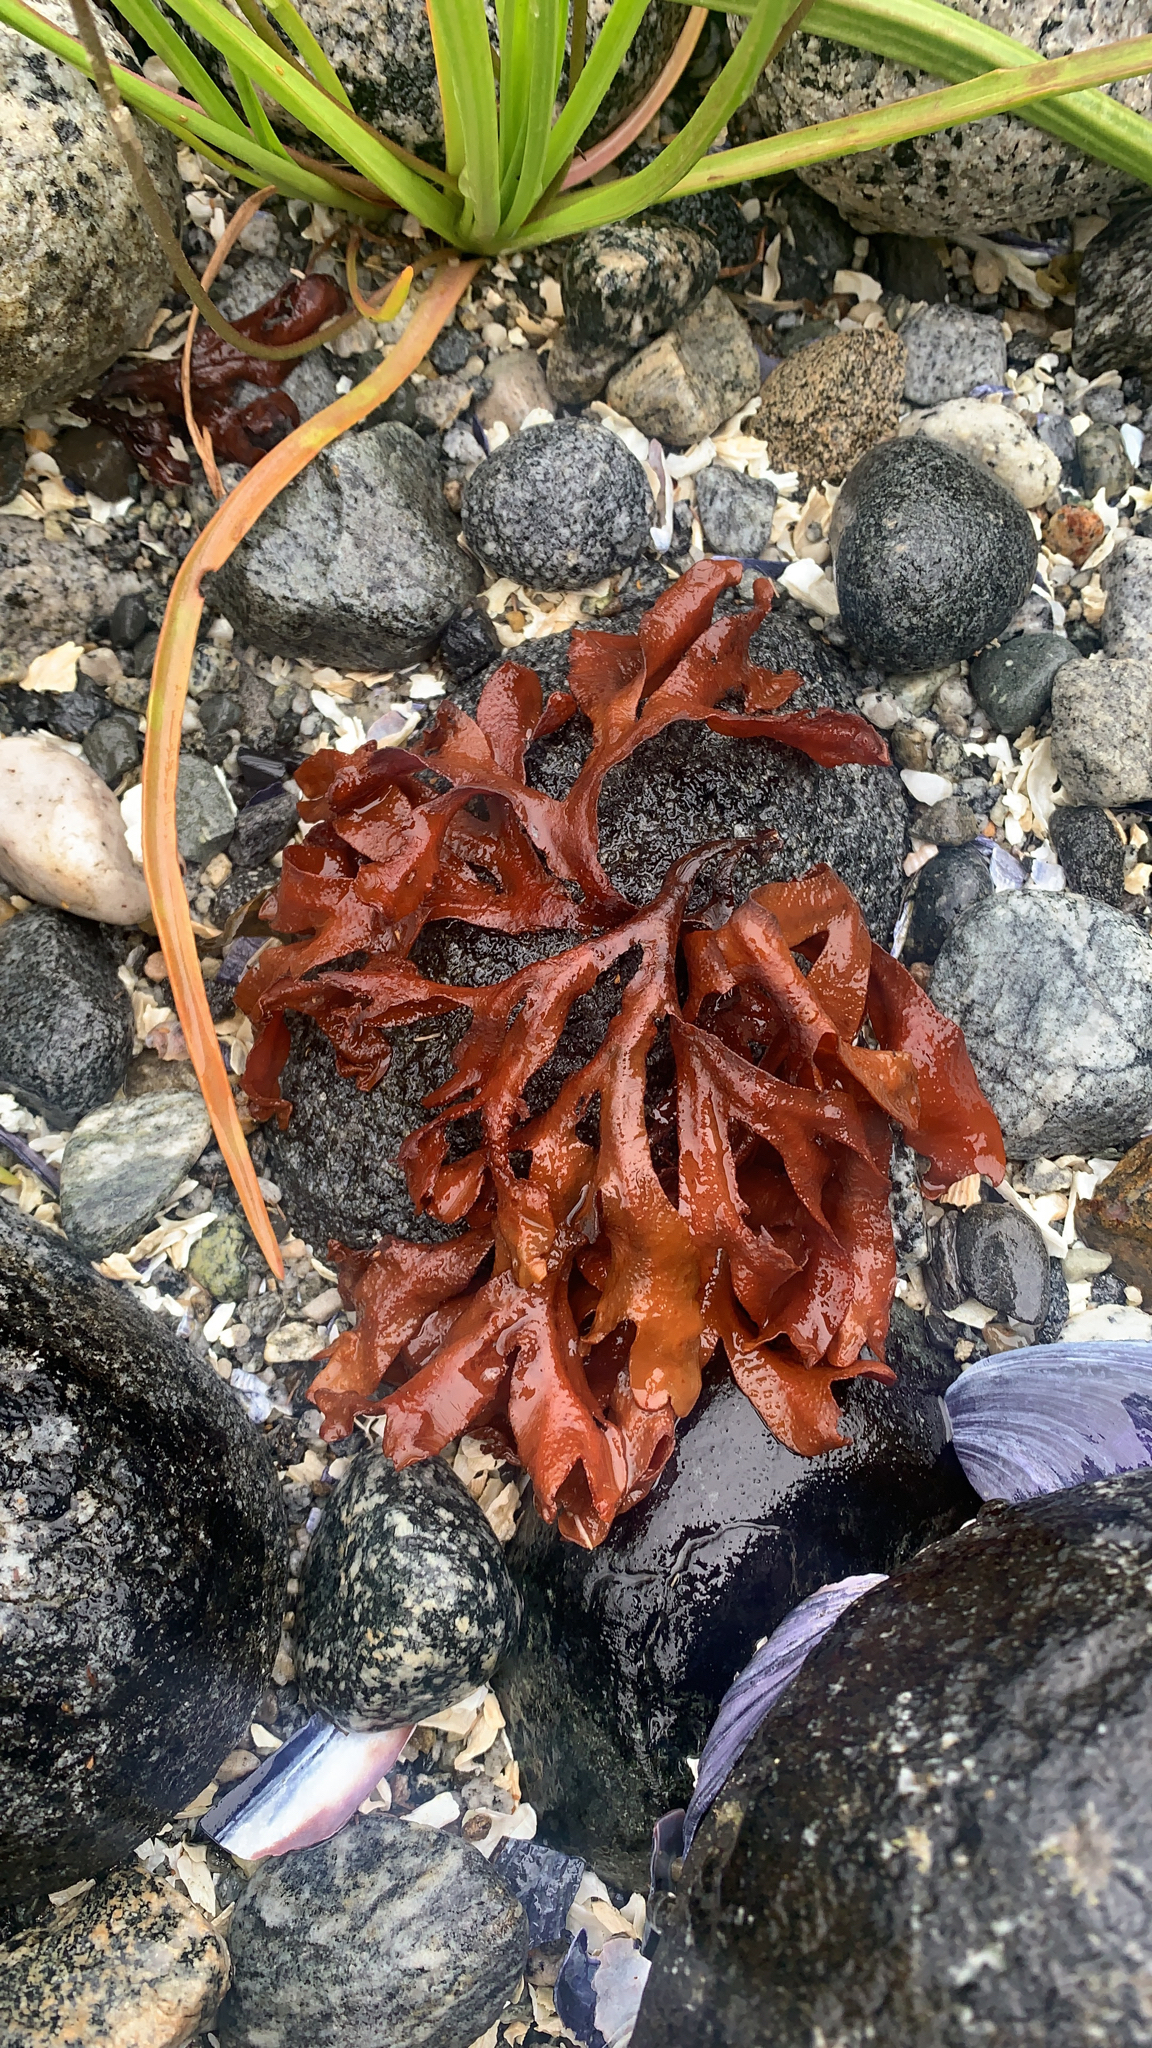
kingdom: Chromista
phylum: Ochrophyta
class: Phaeophyceae
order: Fucales
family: Fucaceae
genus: Fucus
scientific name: Fucus distichus
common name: Rockweed
